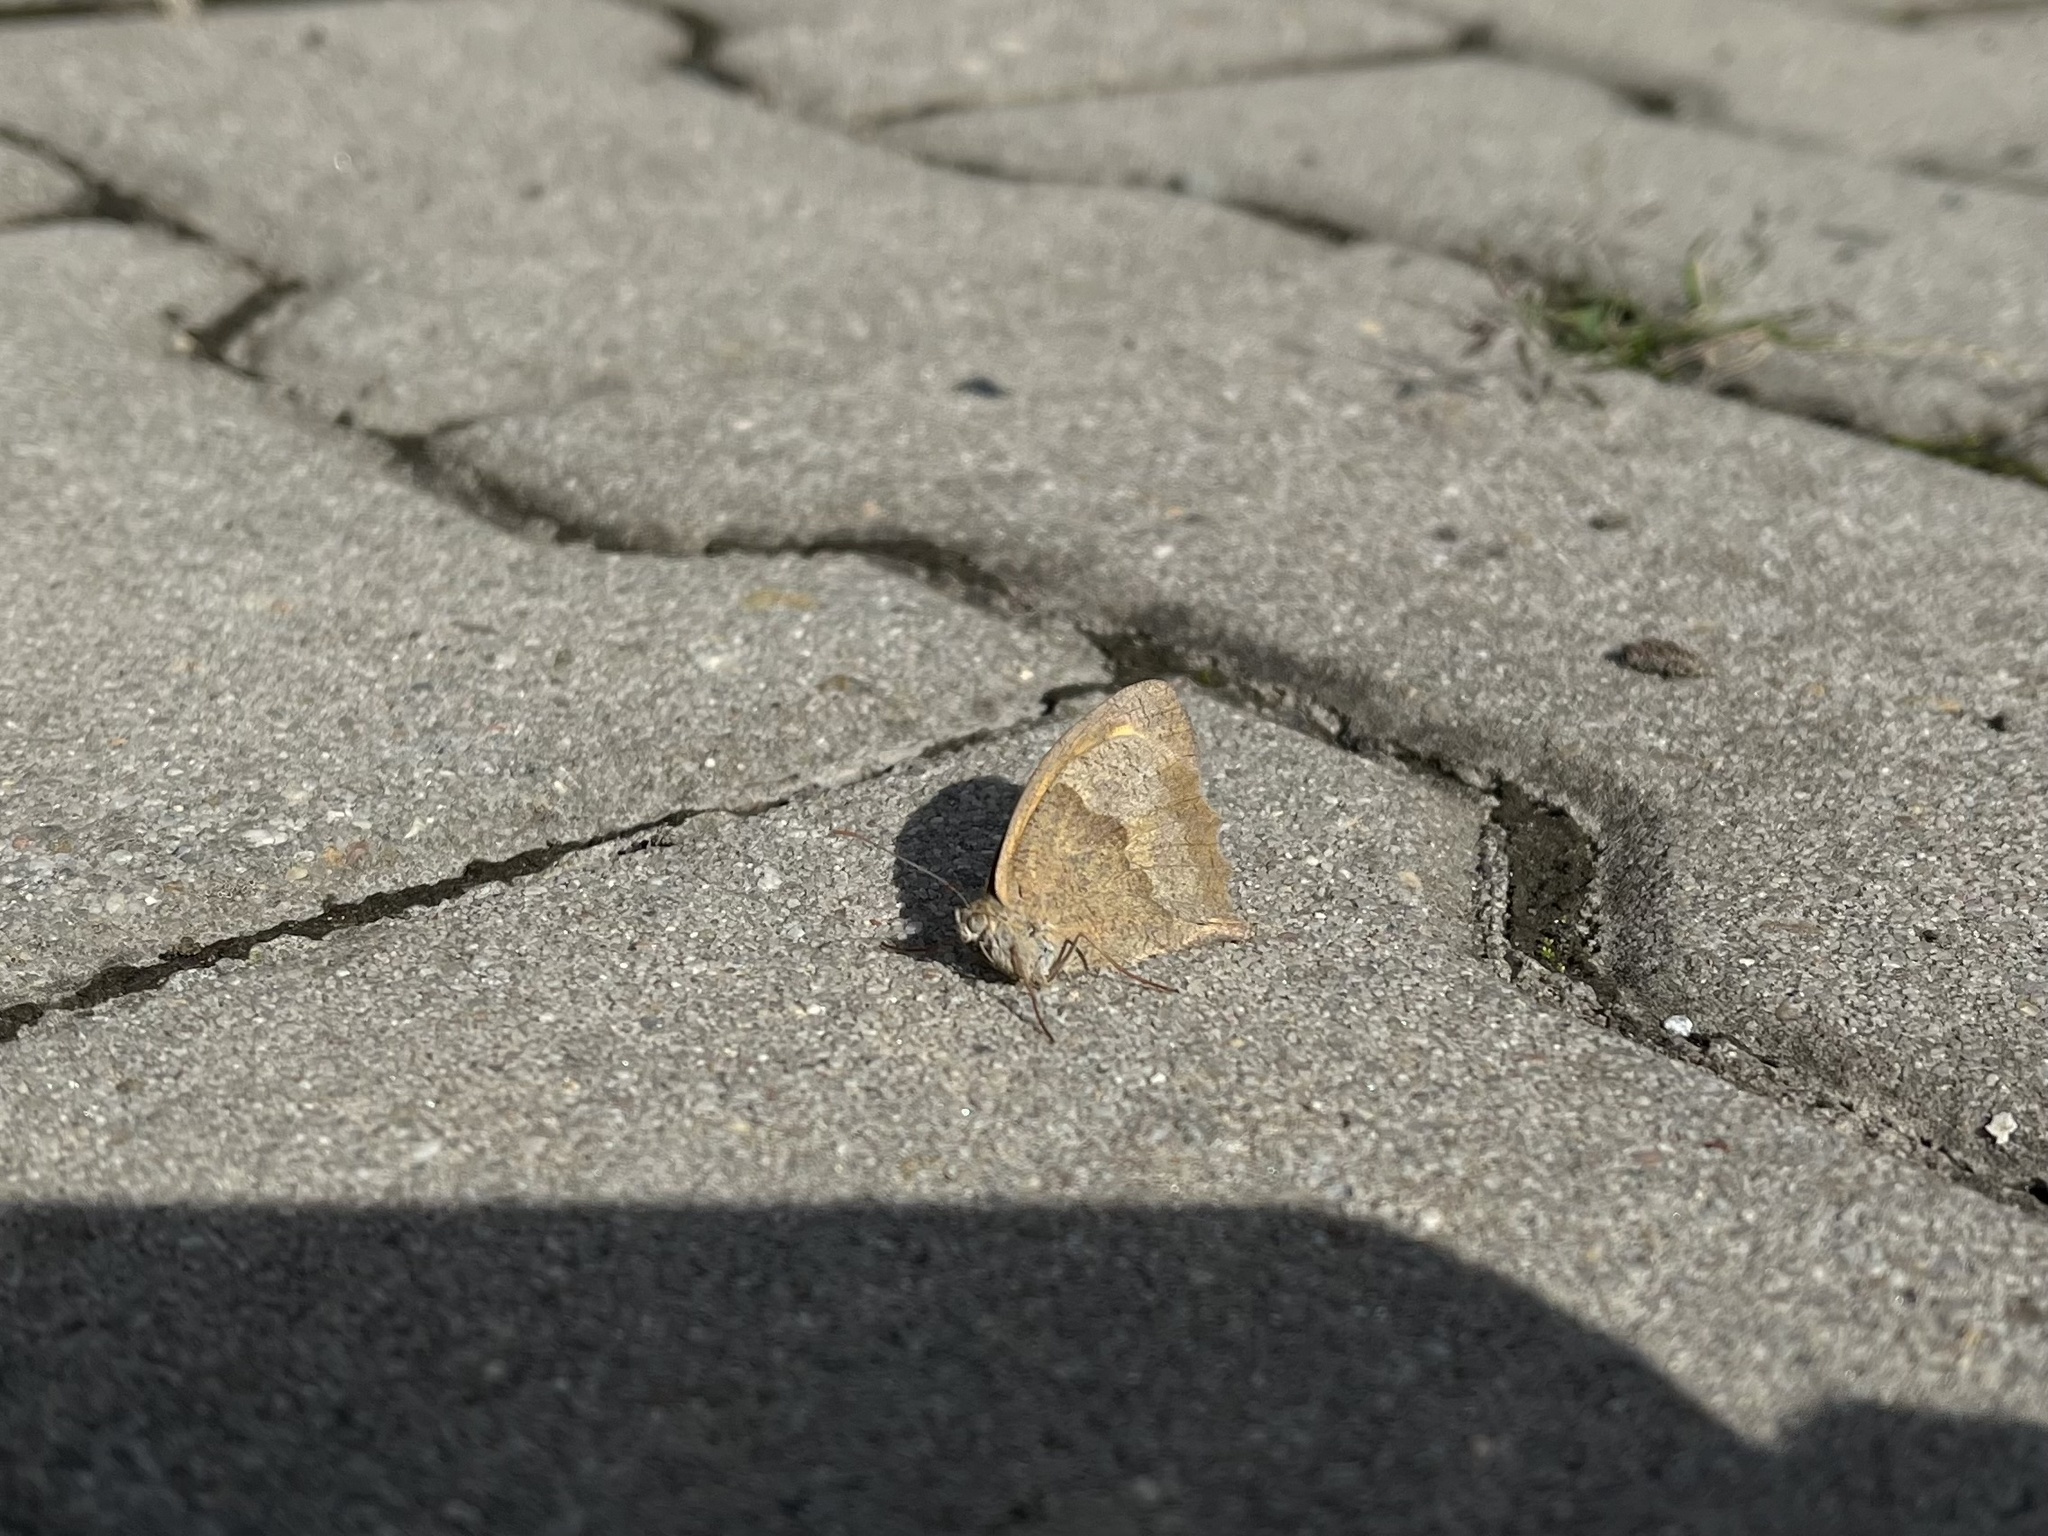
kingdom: Animalia
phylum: Arthropoda
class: Insecta
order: Lepidoptera
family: Nymphalidae
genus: Maniola
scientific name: Maniola jurtina
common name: Meadow brown
